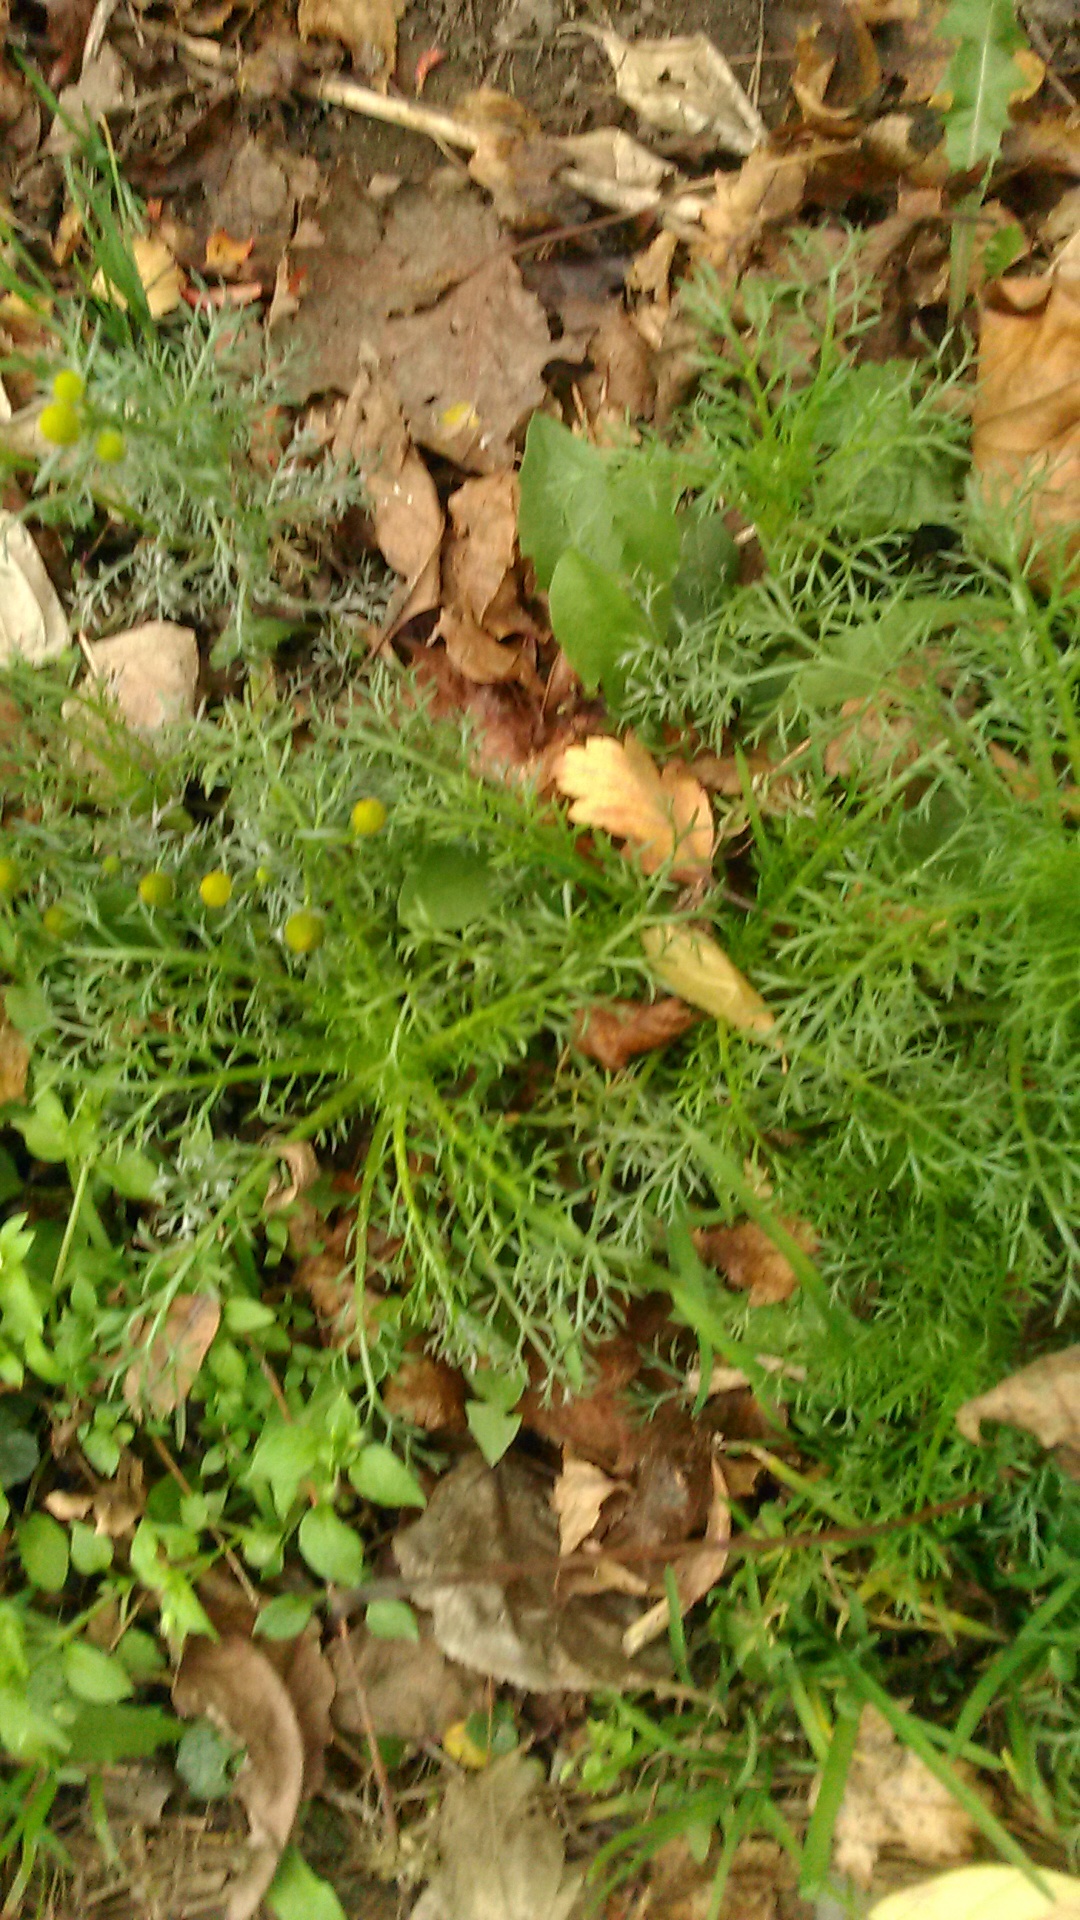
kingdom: Plantae
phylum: Tracheophyta
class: Magnoliopsida
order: Asterales
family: Asteraceae
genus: Matricaria
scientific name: Matricaria discoidea
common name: Disc mayweed
